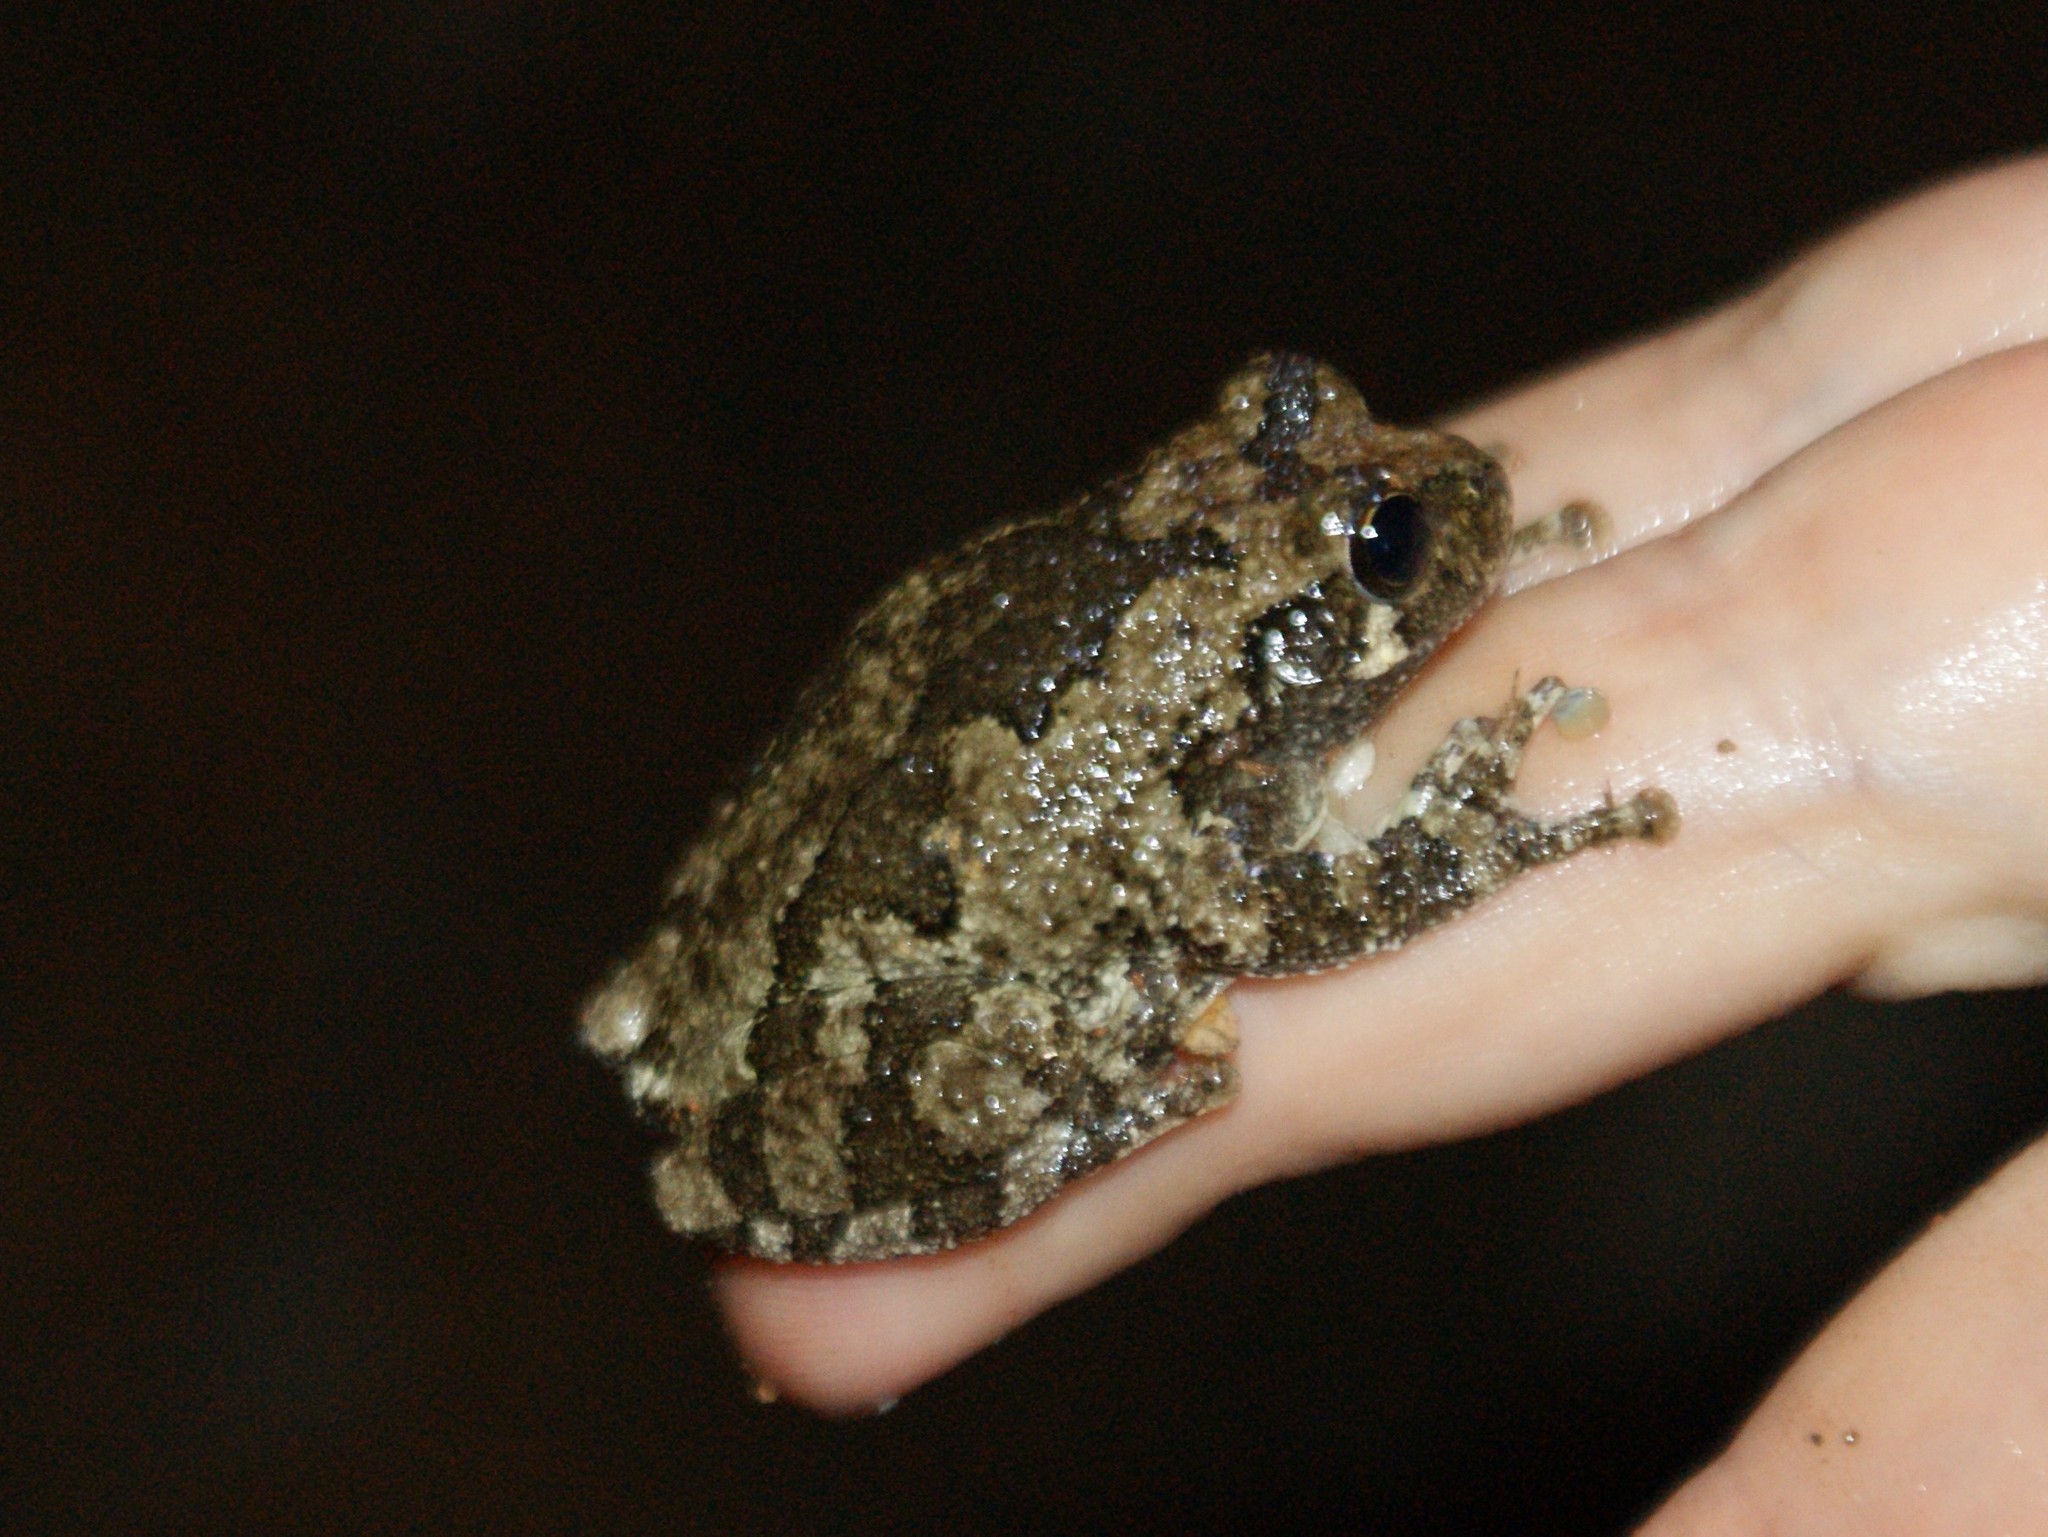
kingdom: Animalia
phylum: Chordata
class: Amphibia
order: Anura
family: Hylidae
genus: Dryophytes
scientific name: Dryophytes chrysoscelis
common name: Cope's gray treefrog
